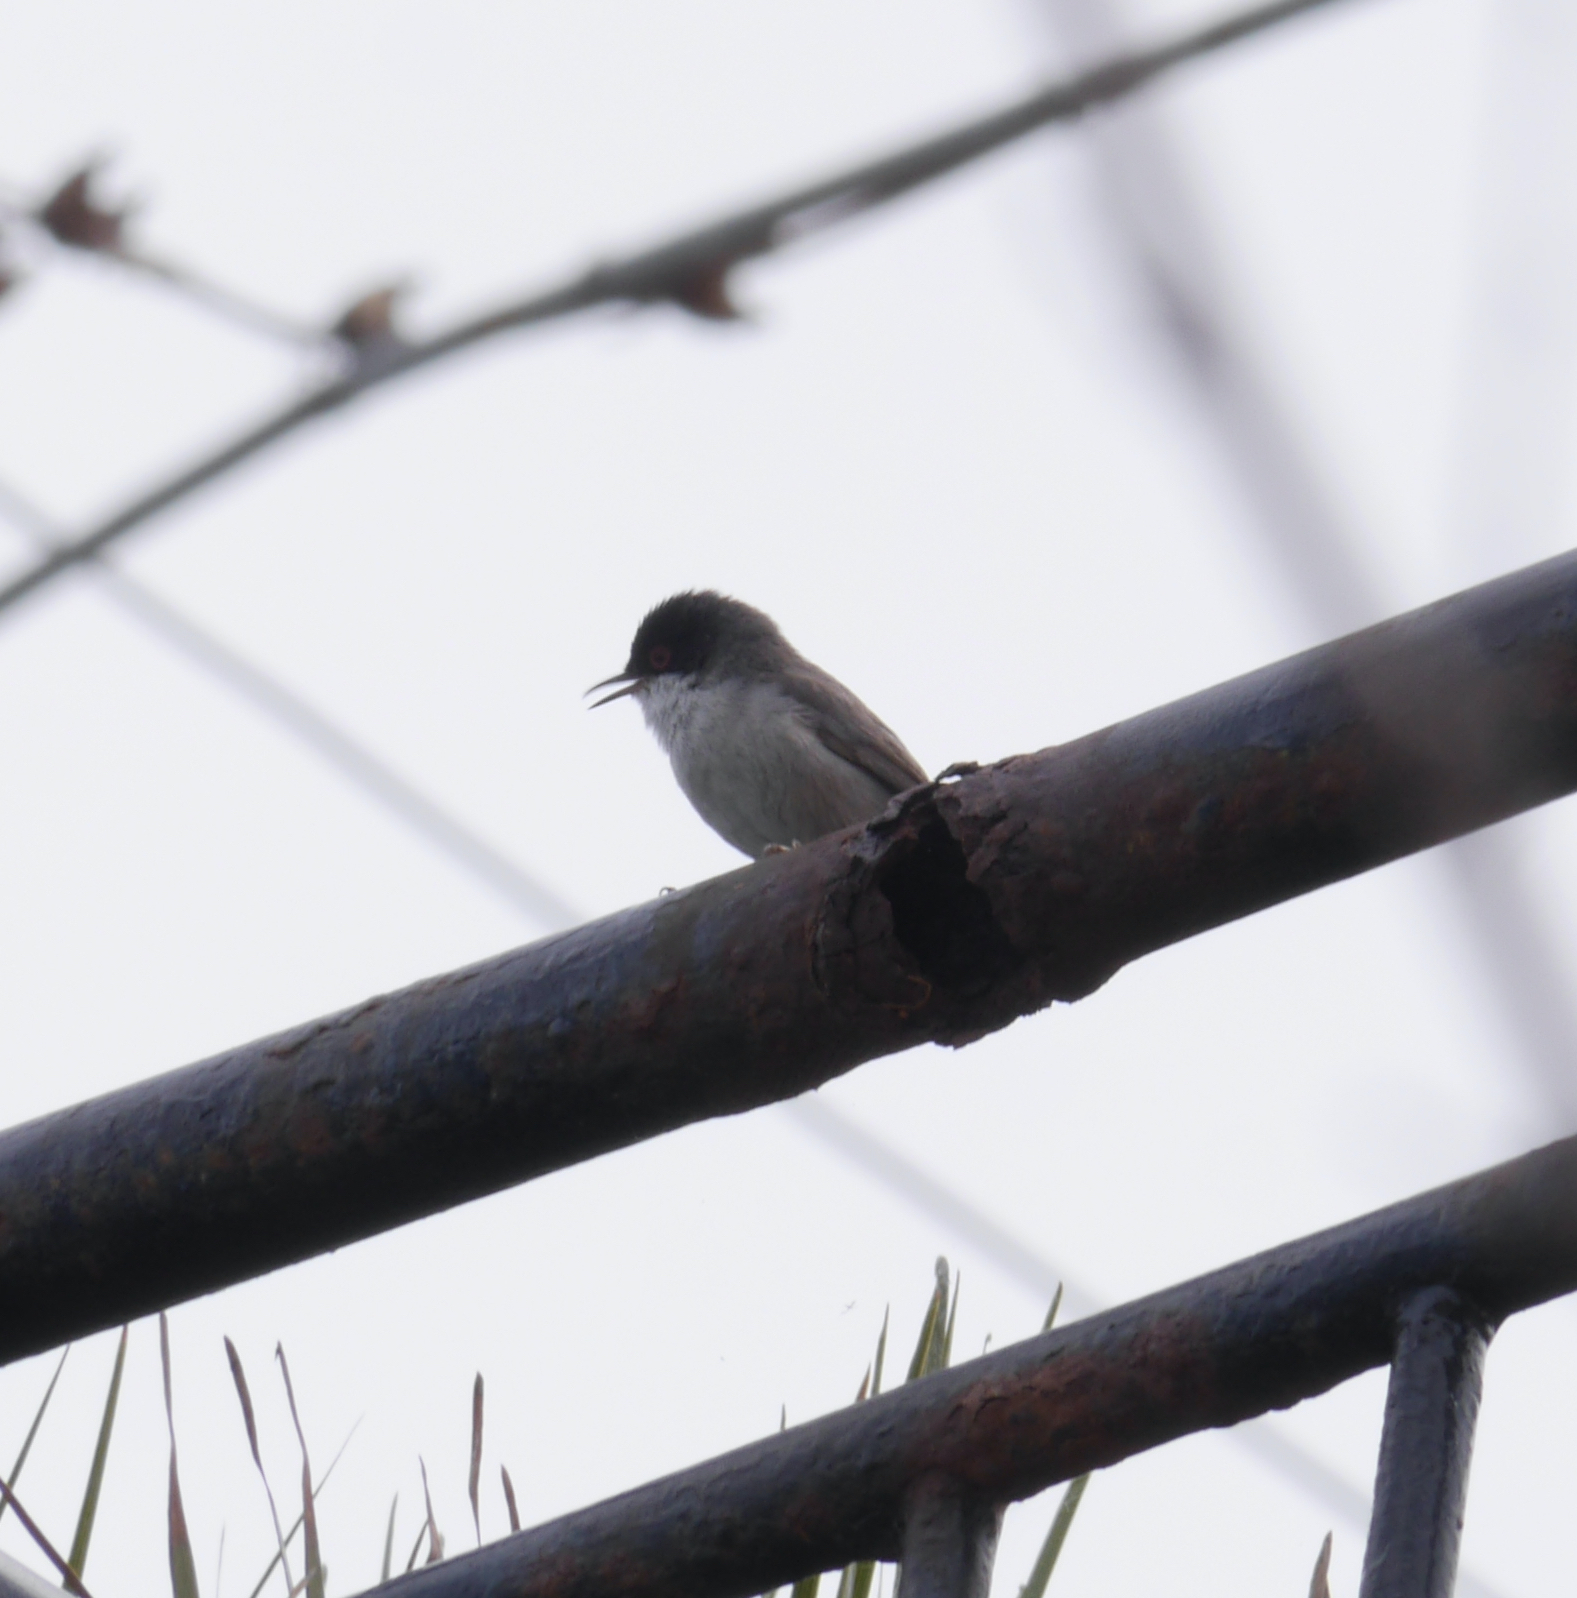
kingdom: Animalia
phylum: Chordata
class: Aves
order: Passeriformes
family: Sylviidae
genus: Curruca
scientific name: Curruca melanocephala
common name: Sardinian warbler
